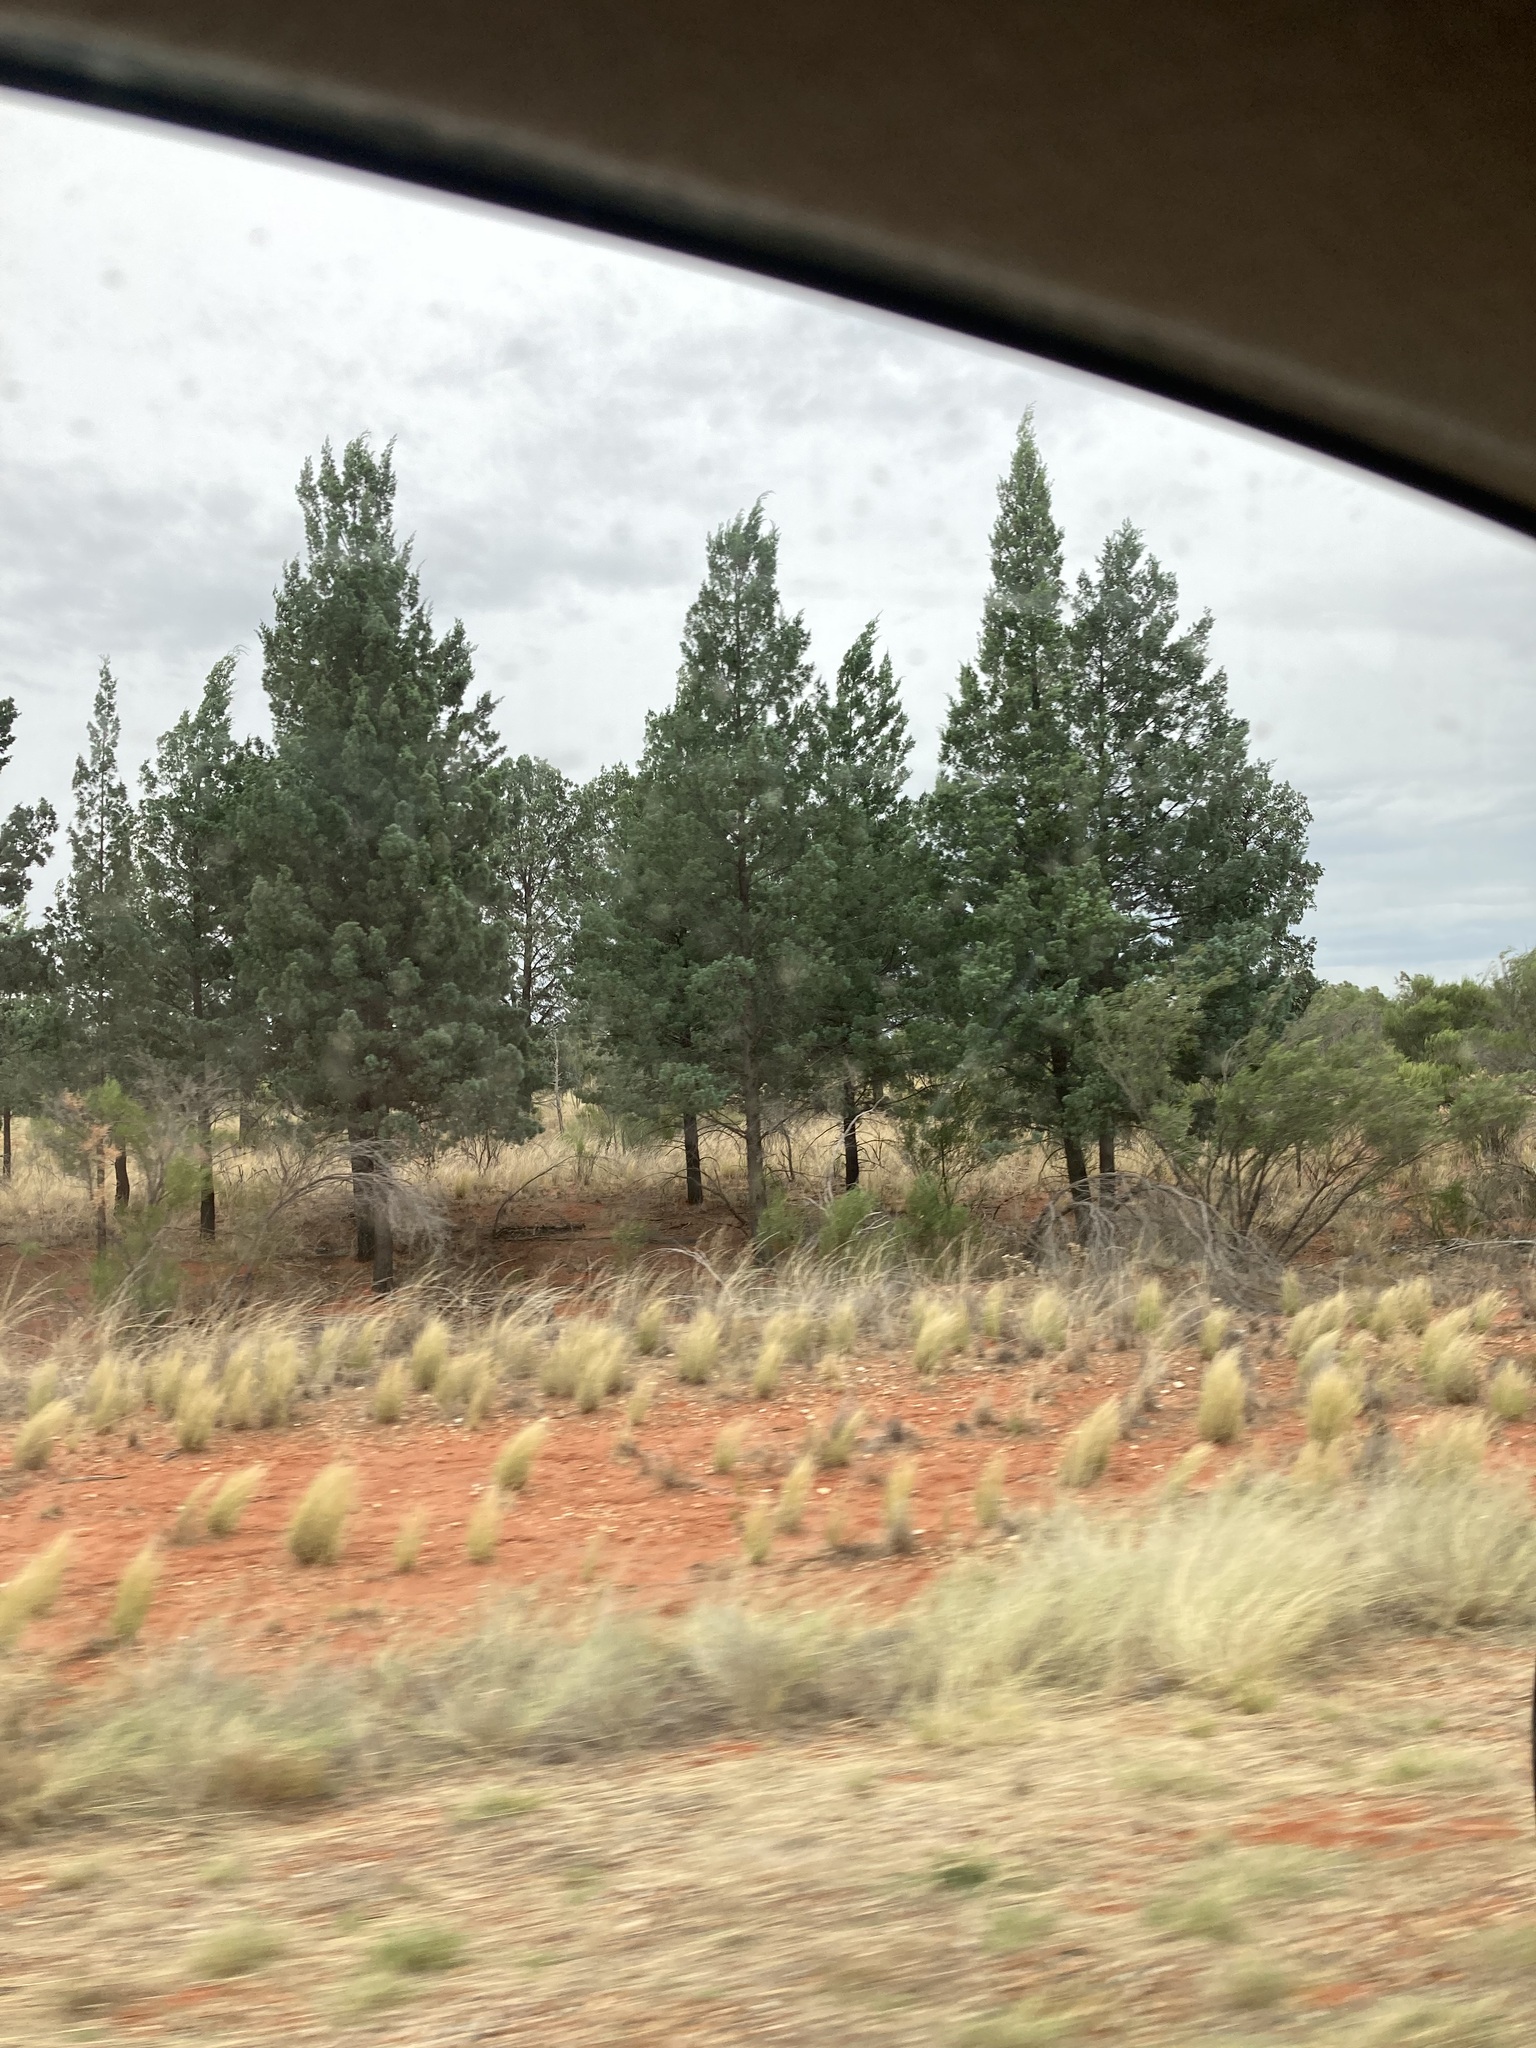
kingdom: Plantae
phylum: Tracheophyta
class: Pinopsida
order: Pinales
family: Cupressaceae
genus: Callitris
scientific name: Callitris columellaris
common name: White cypress-pine
